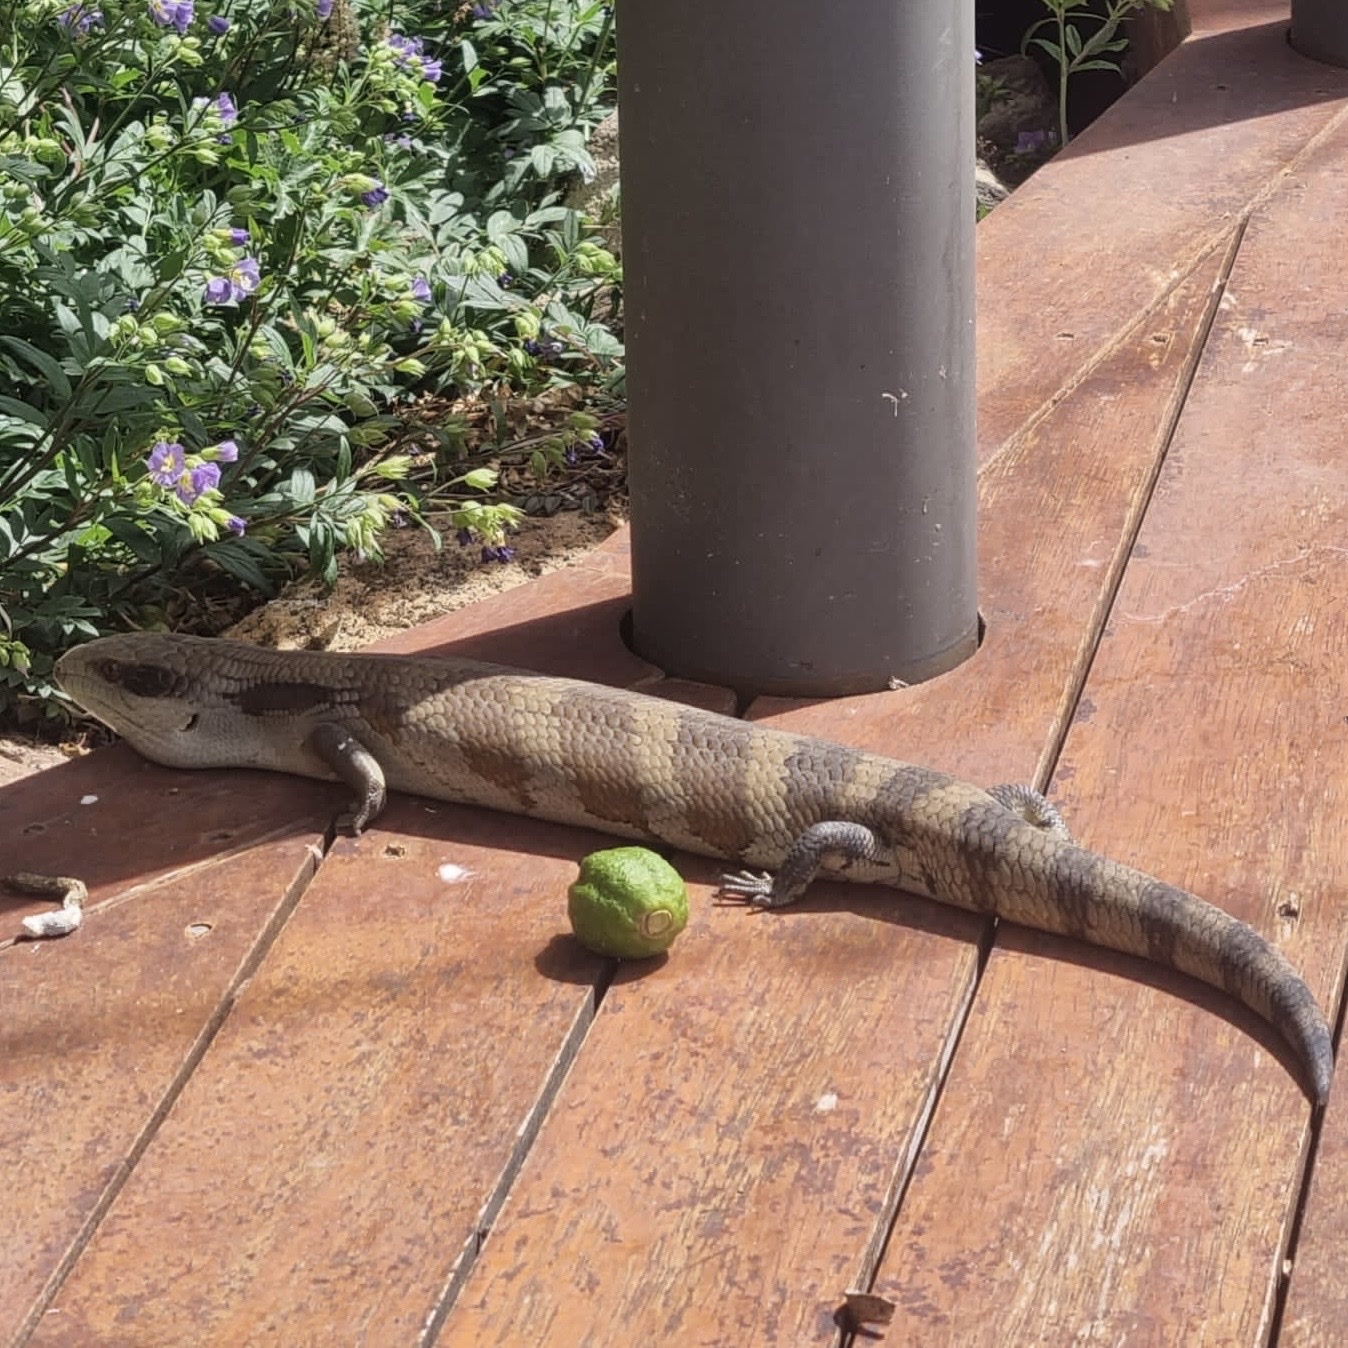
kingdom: Animalia
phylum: Chordata
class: Squamata
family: Scincidae
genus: Tiliqua
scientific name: Tiliqua scincoides
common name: Common bluetongue
